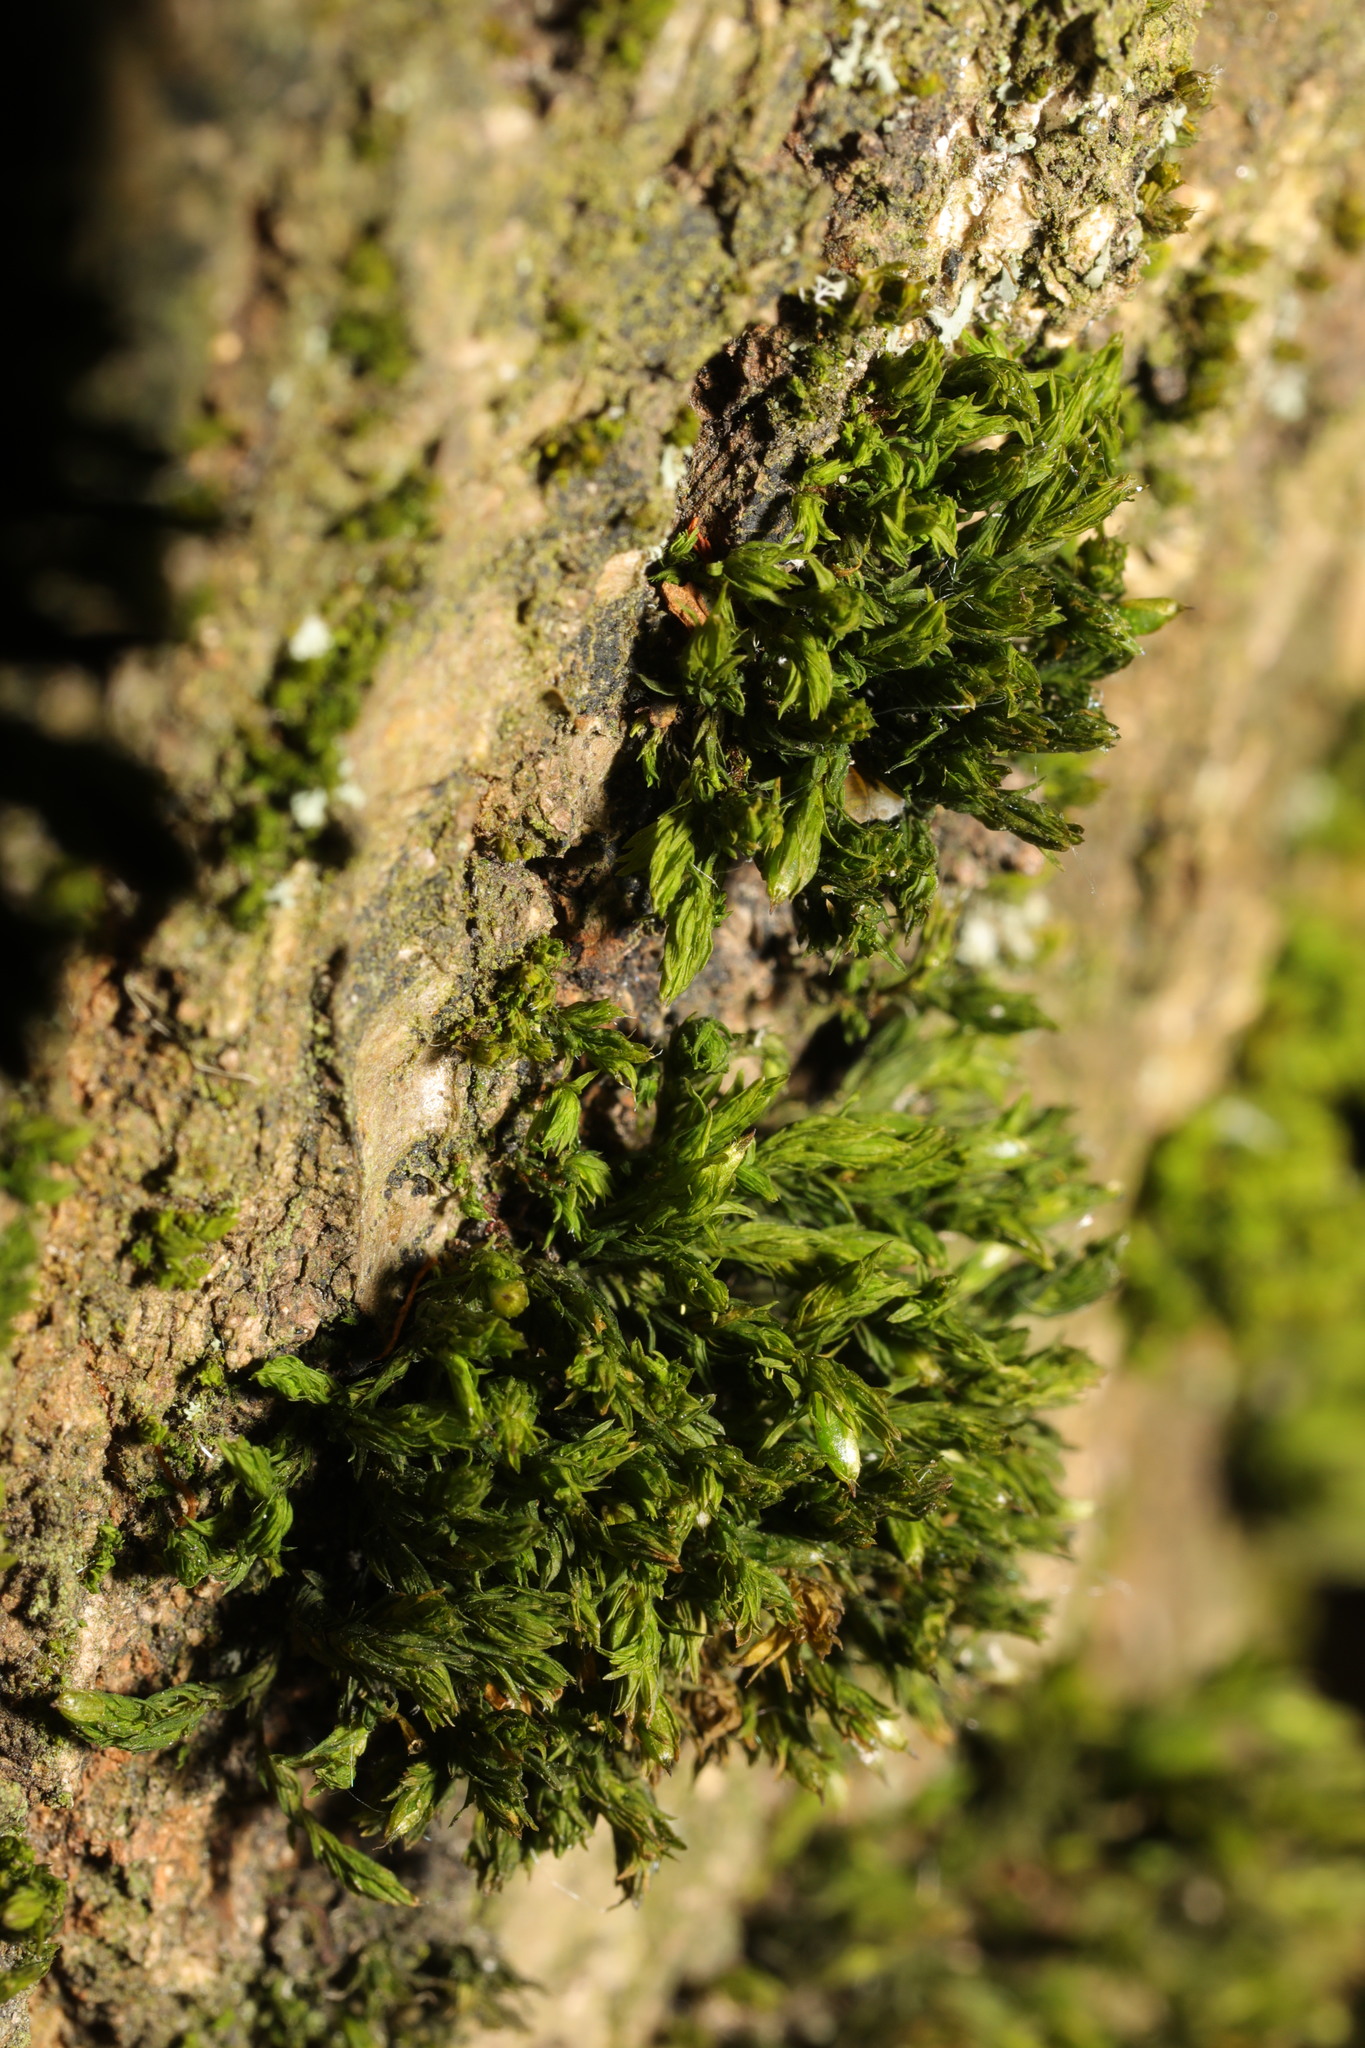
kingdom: Plantae
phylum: Bryophyta
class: Bryopsida
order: Orthotrichales
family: Orthotrichaceae
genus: Lewinskya
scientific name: Lewinskya affinis
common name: Wood bristle-moss
